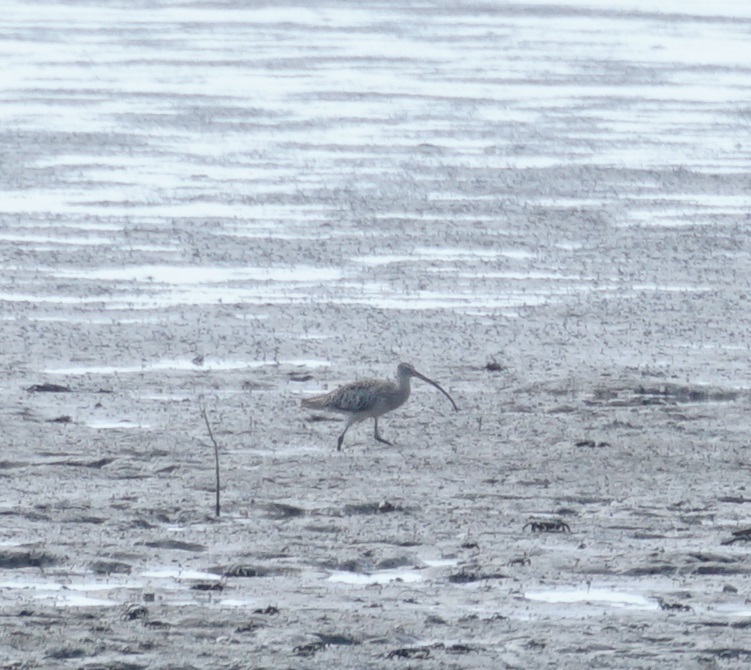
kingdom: Animalia
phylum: Chordata
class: Aves
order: Charadriiformes
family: Scolopacidae
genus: Numenius
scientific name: Numenius madagascariensis
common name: Far eastern curlew
